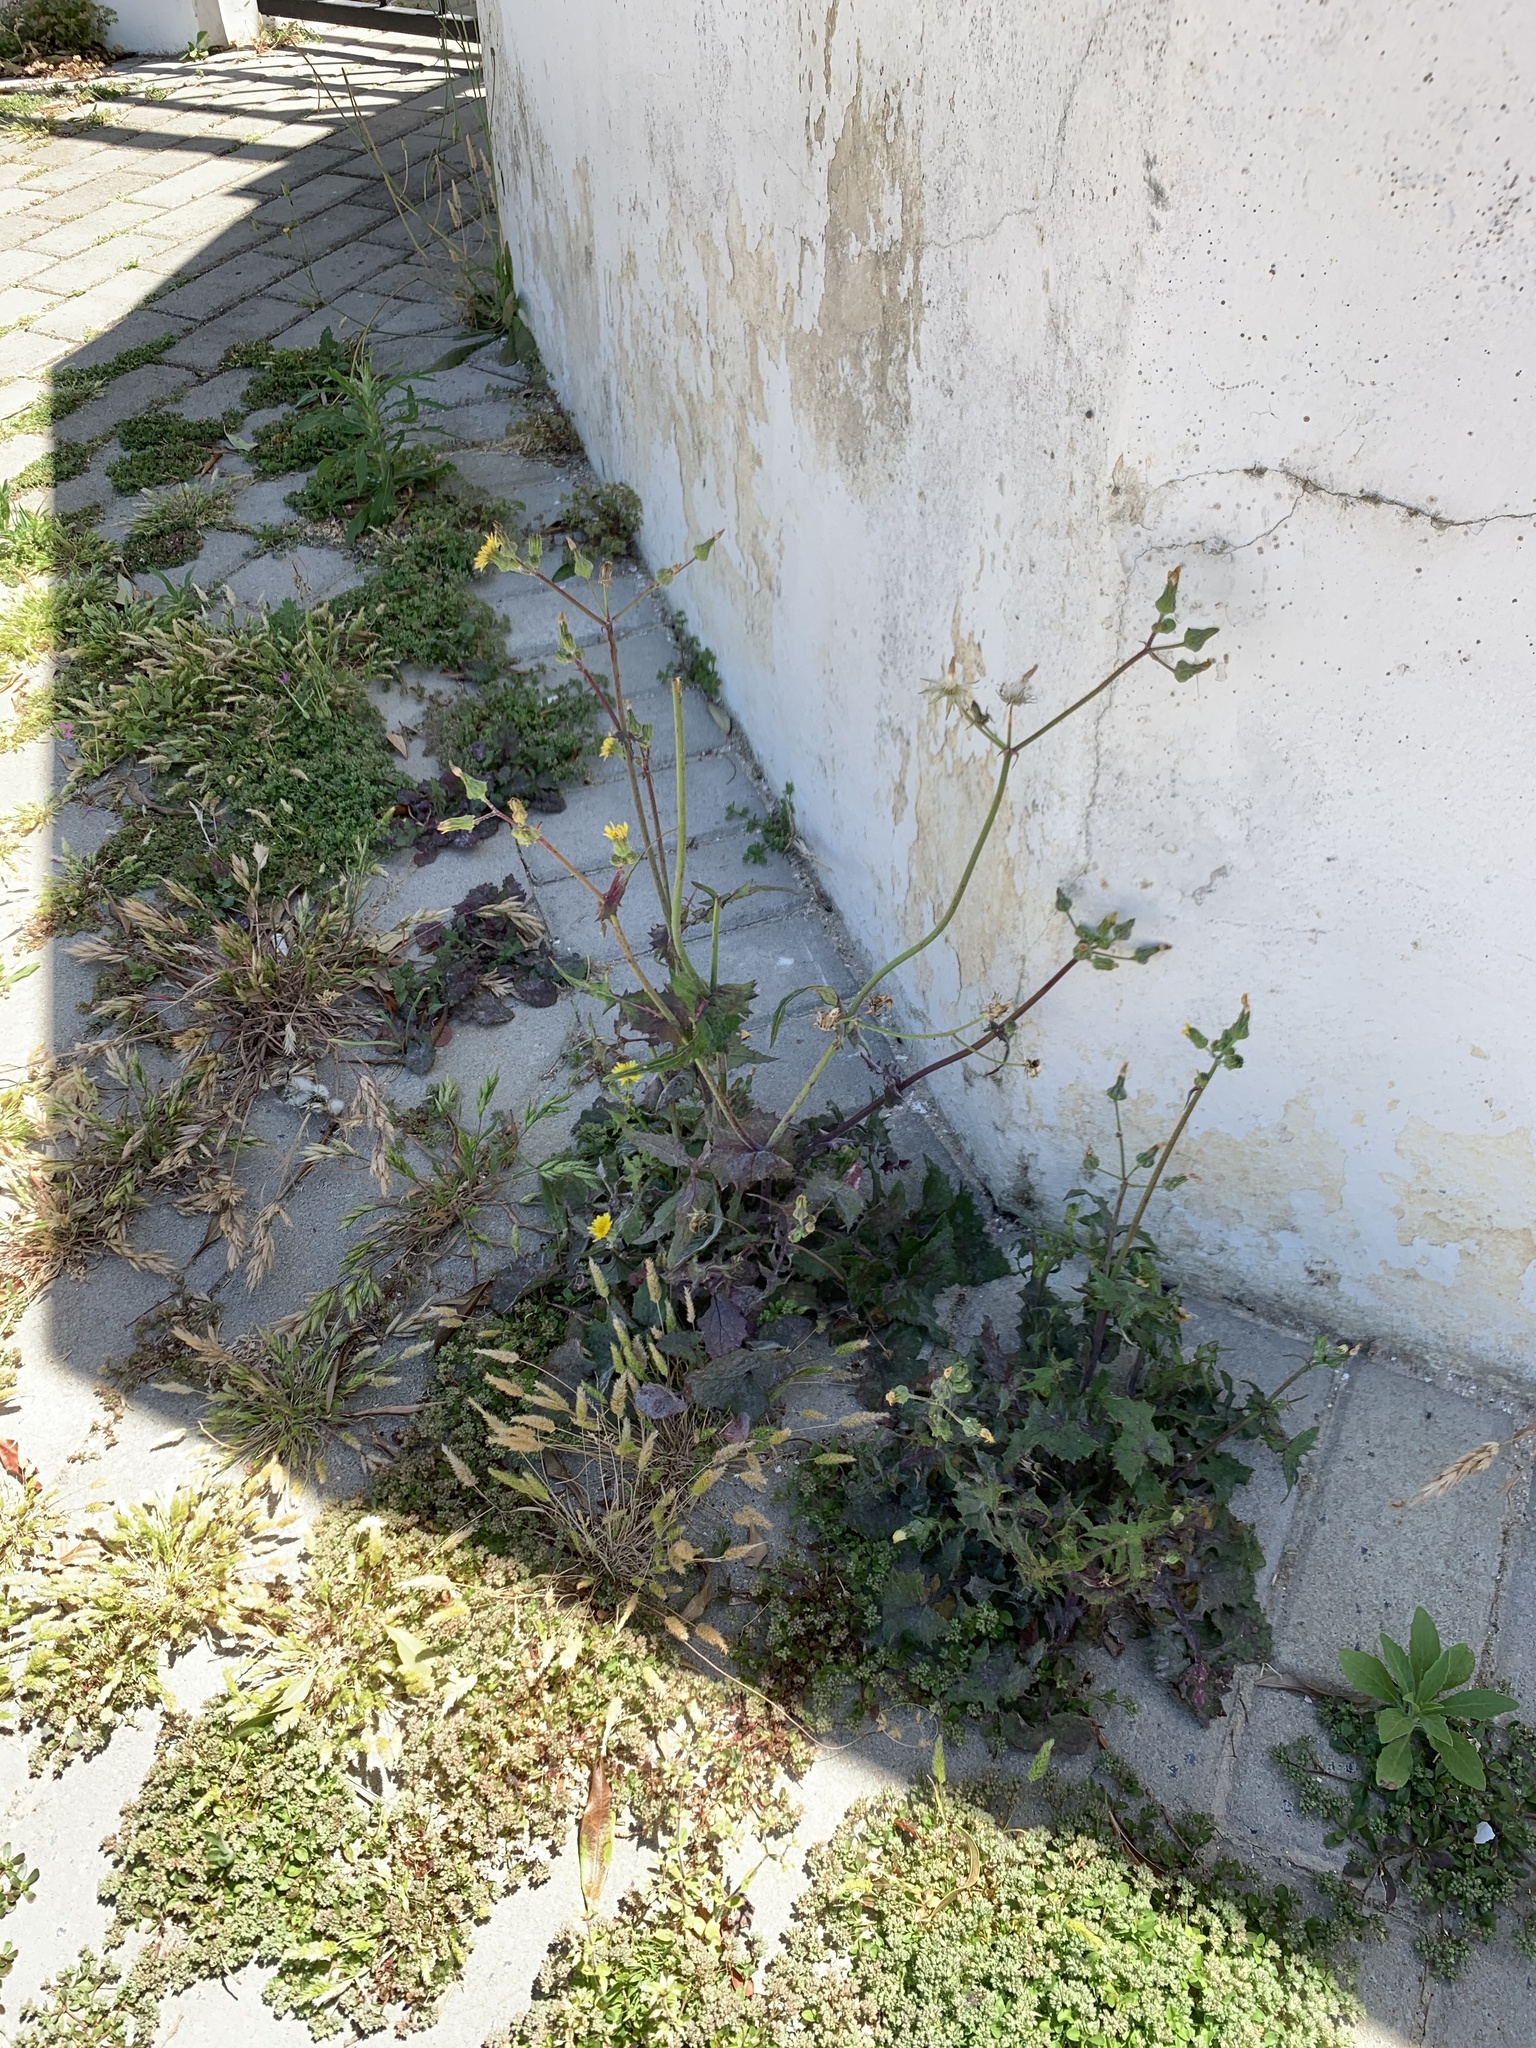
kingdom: Plantae
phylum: Tracheophyta
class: Magnoliopsida
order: Asterales
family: Asteraceae
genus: Sonchus
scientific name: Sonchus oleraceus
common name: Common sowthistle
